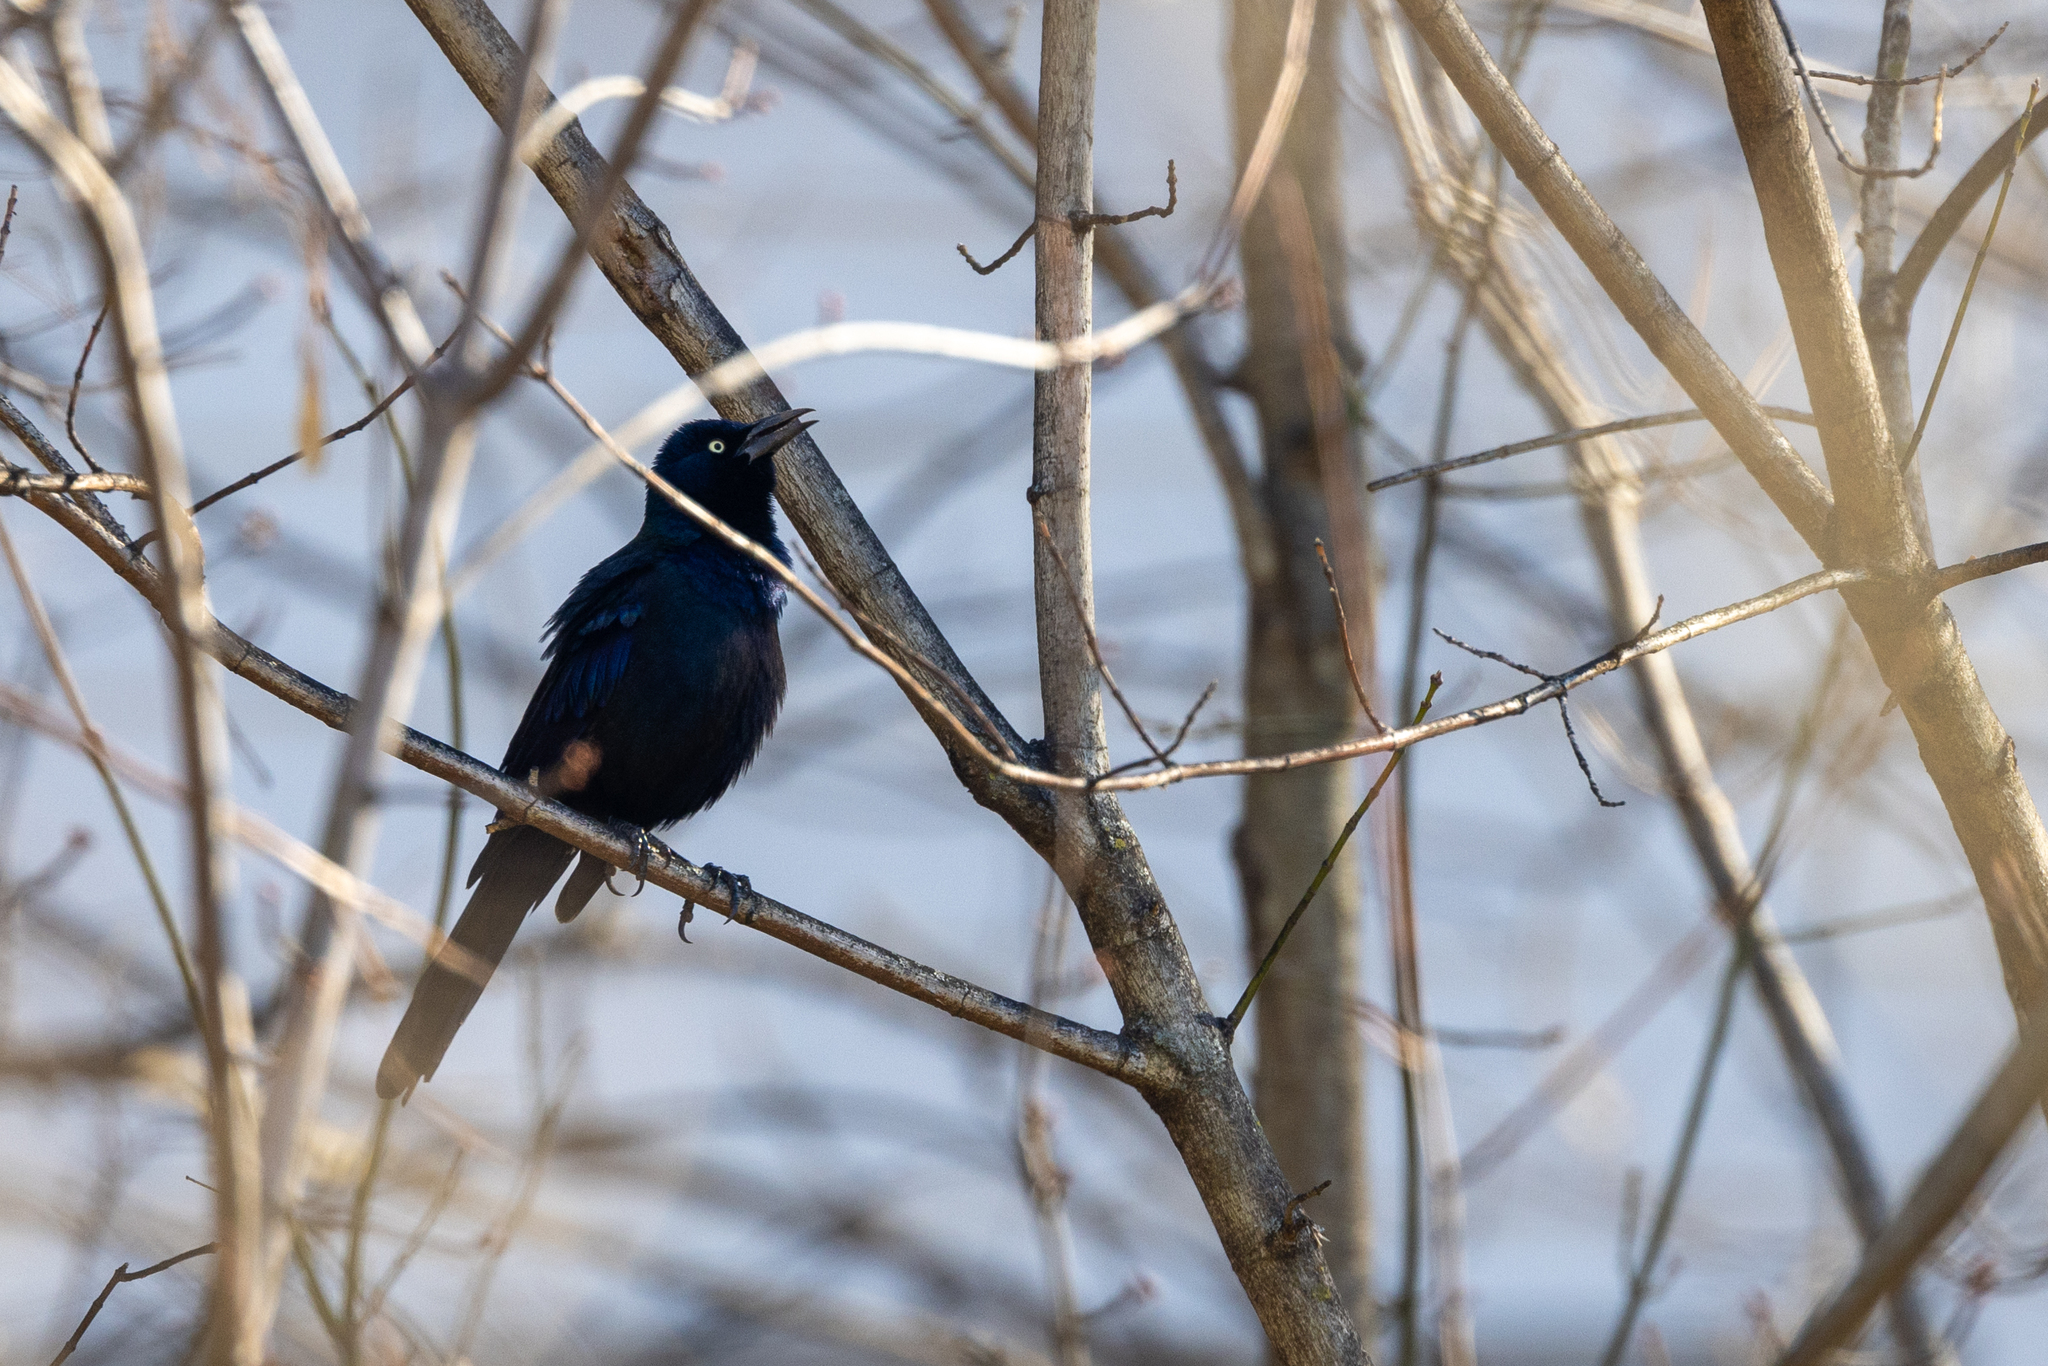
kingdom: Animalia
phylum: Chordata
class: Aves
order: Passeriformes
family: Icteridae
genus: Quiscalus
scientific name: Quiscalus quiscula
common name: Common grackle
